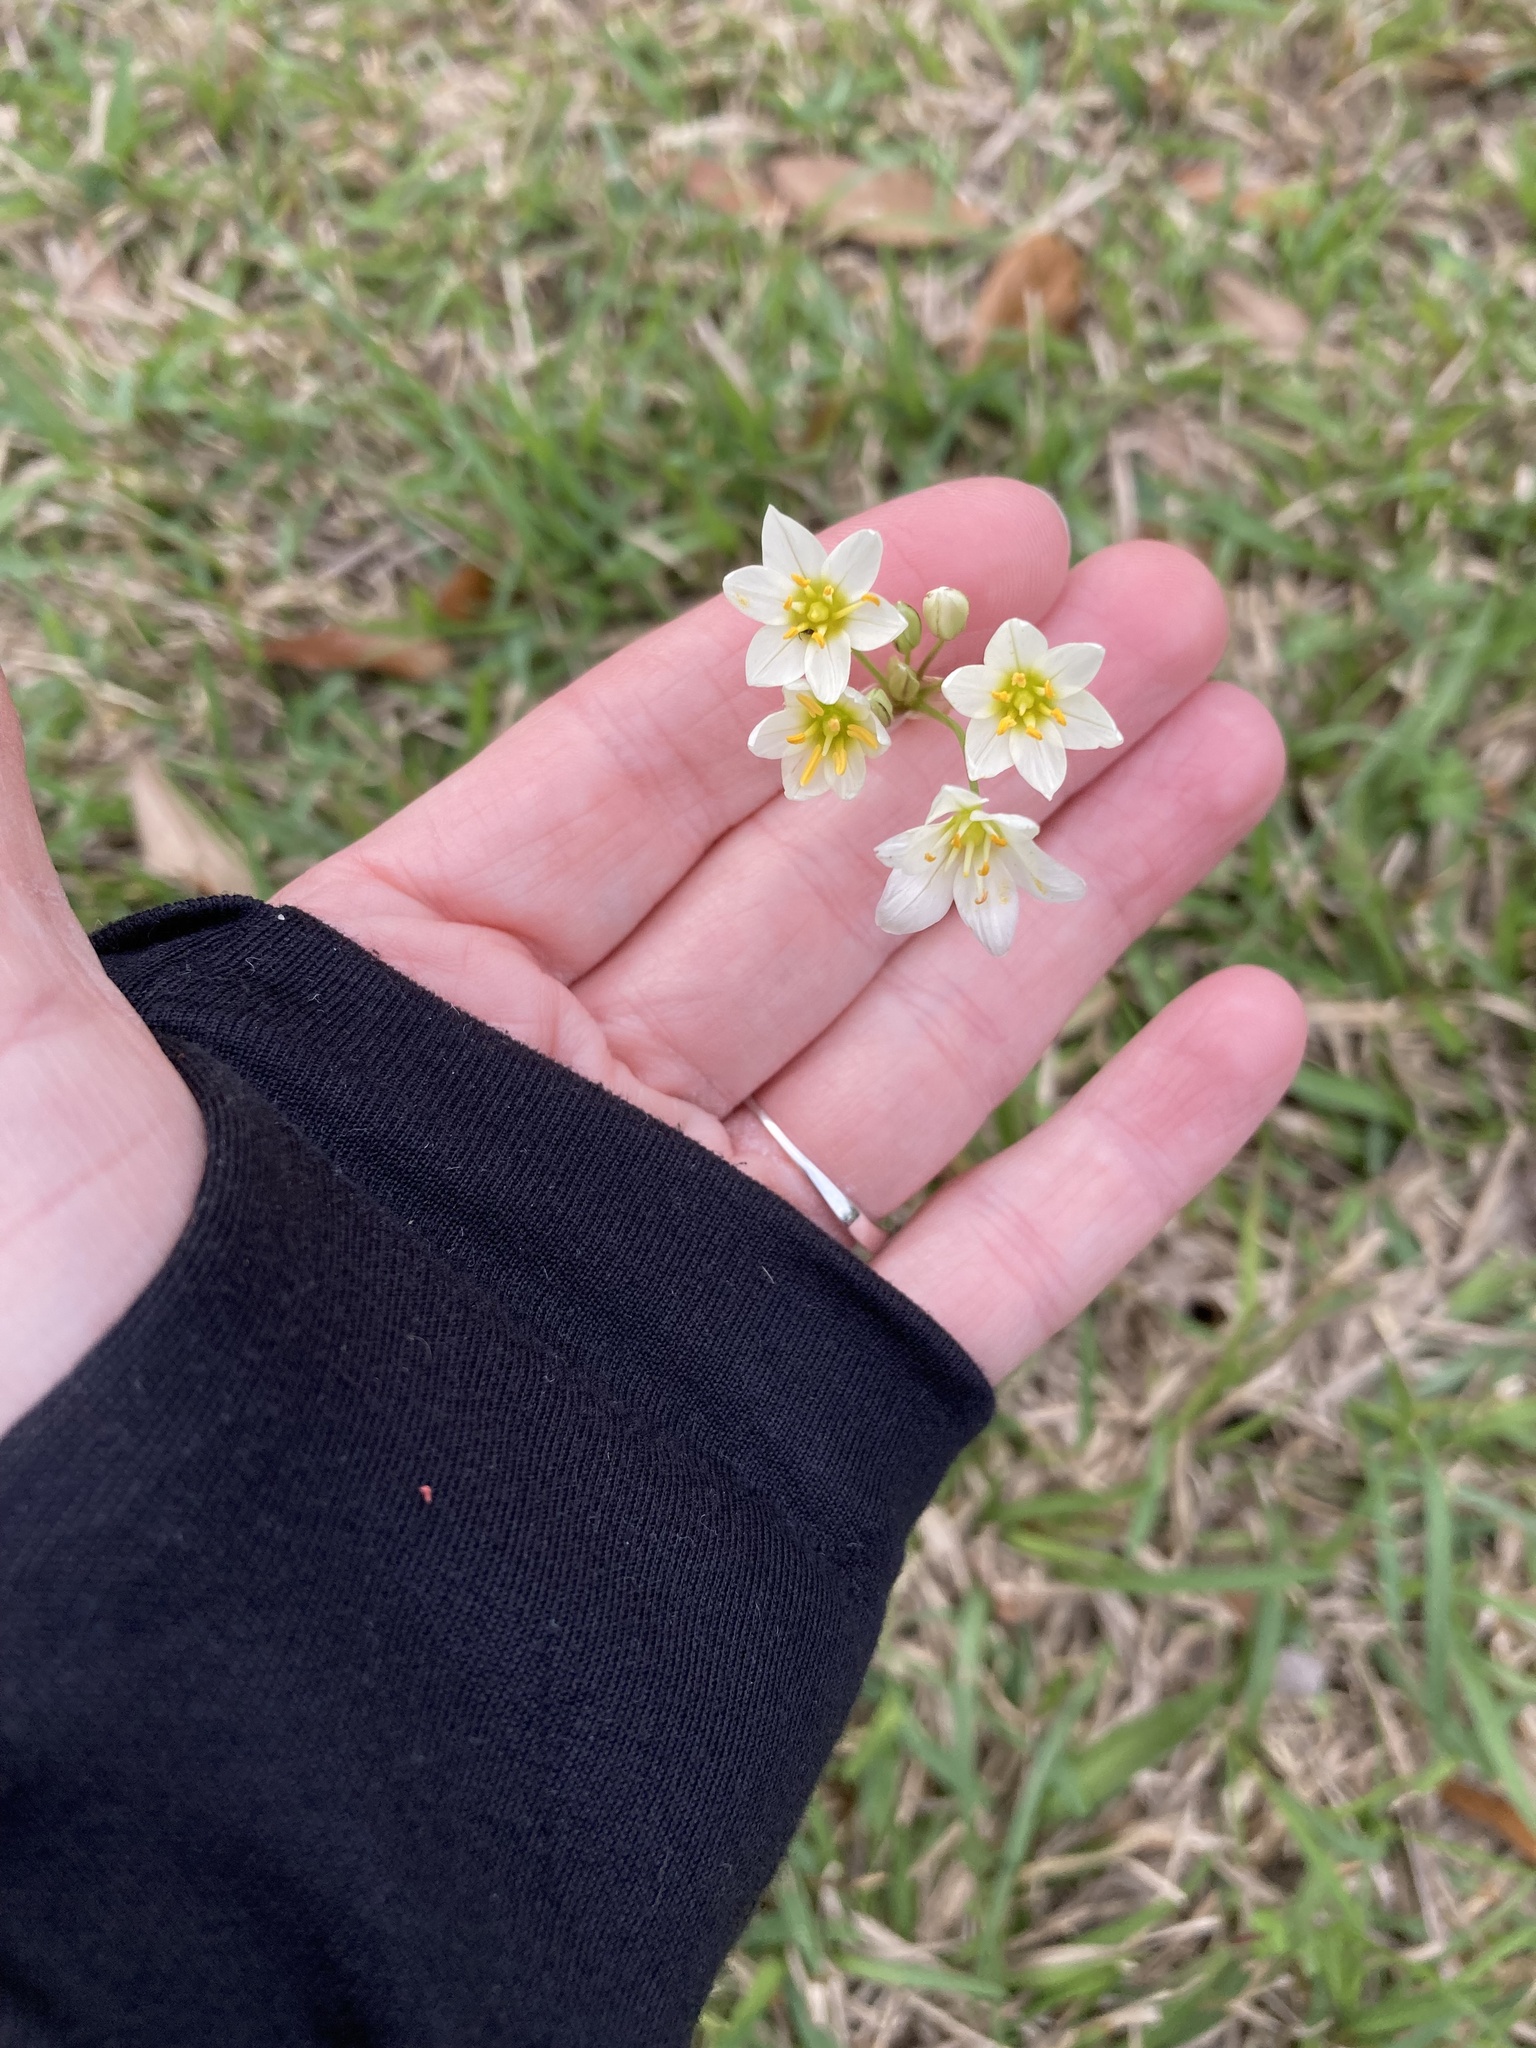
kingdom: Plantae
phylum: Tracheophyta
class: Liliopsida
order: Asparagales
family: Amaryllidaceae
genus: Nothoscordum
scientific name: Nothoscordum bivalve
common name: Crow-poison
